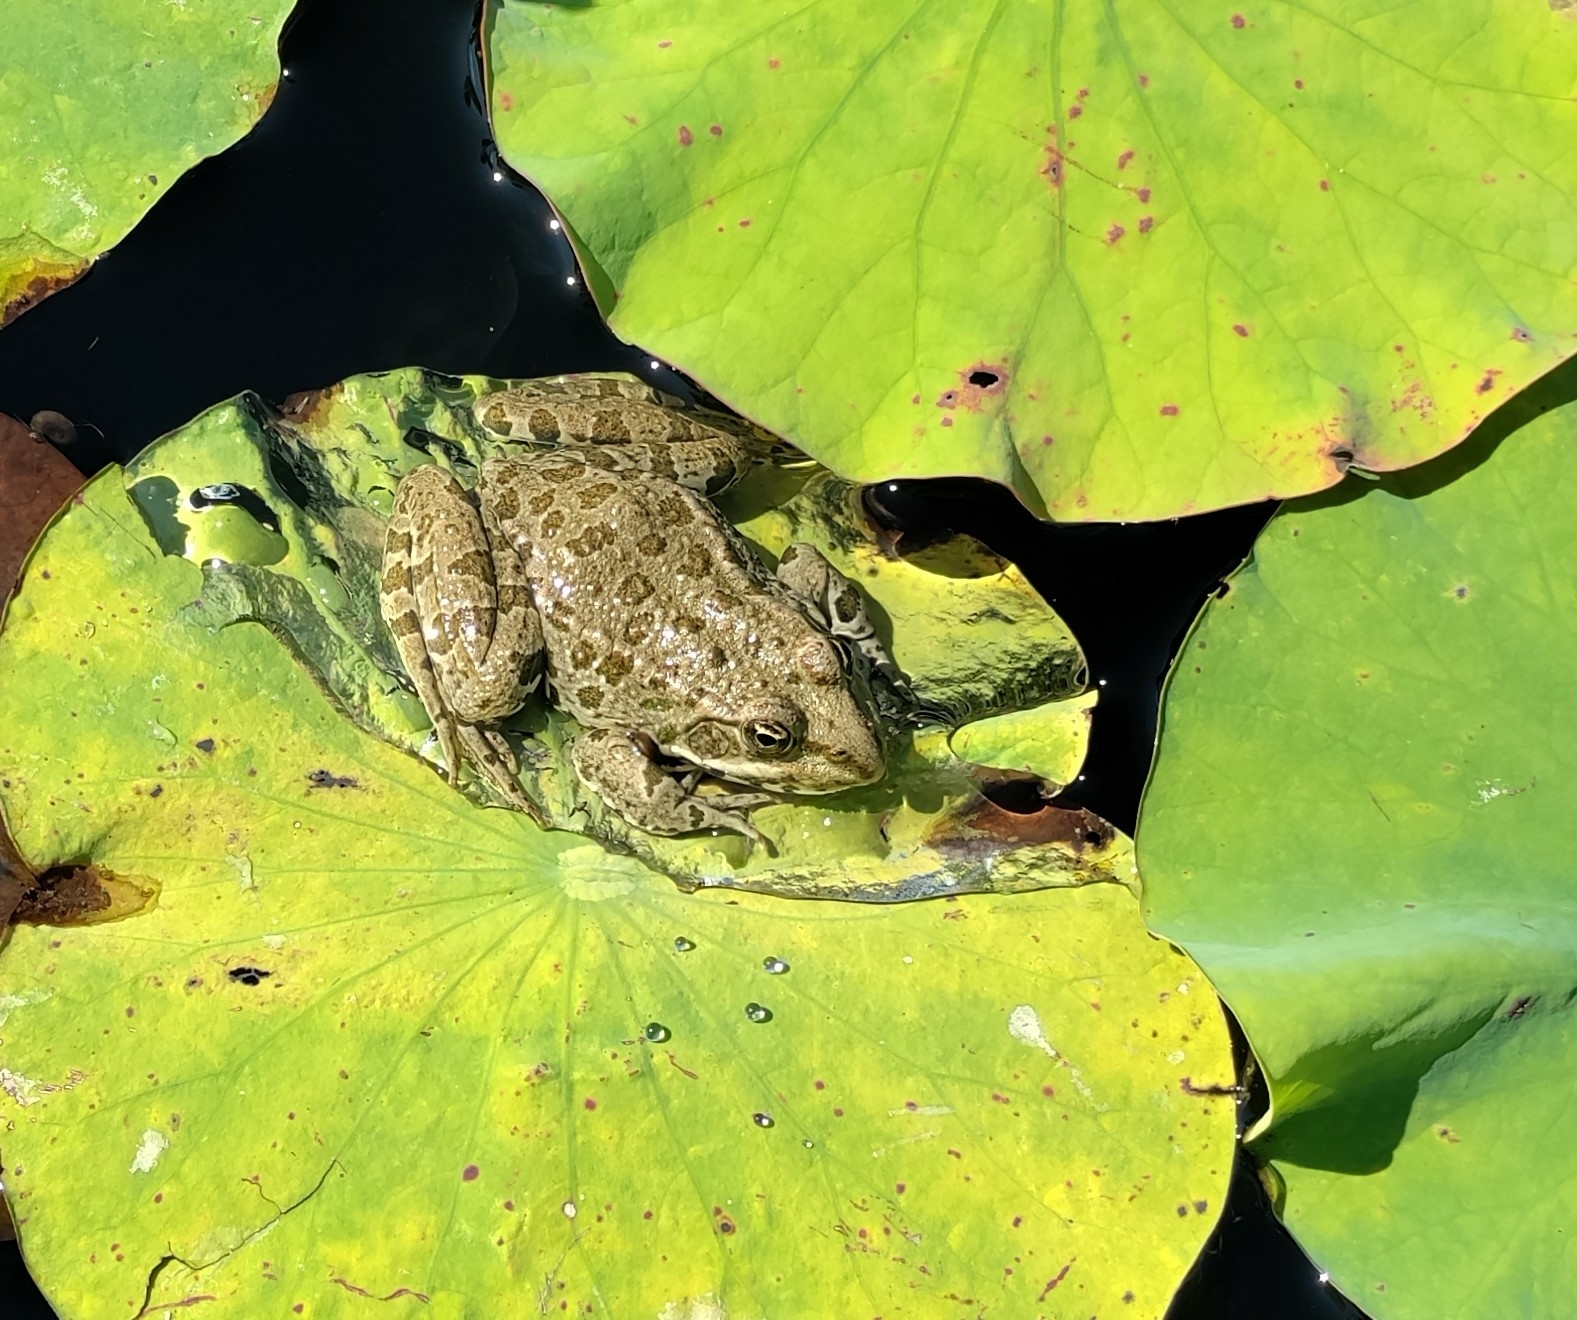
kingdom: Animalia
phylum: Chordata
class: Amphibia
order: Anura
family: Ranidae
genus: Pelophylax
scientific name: Pelophylax
